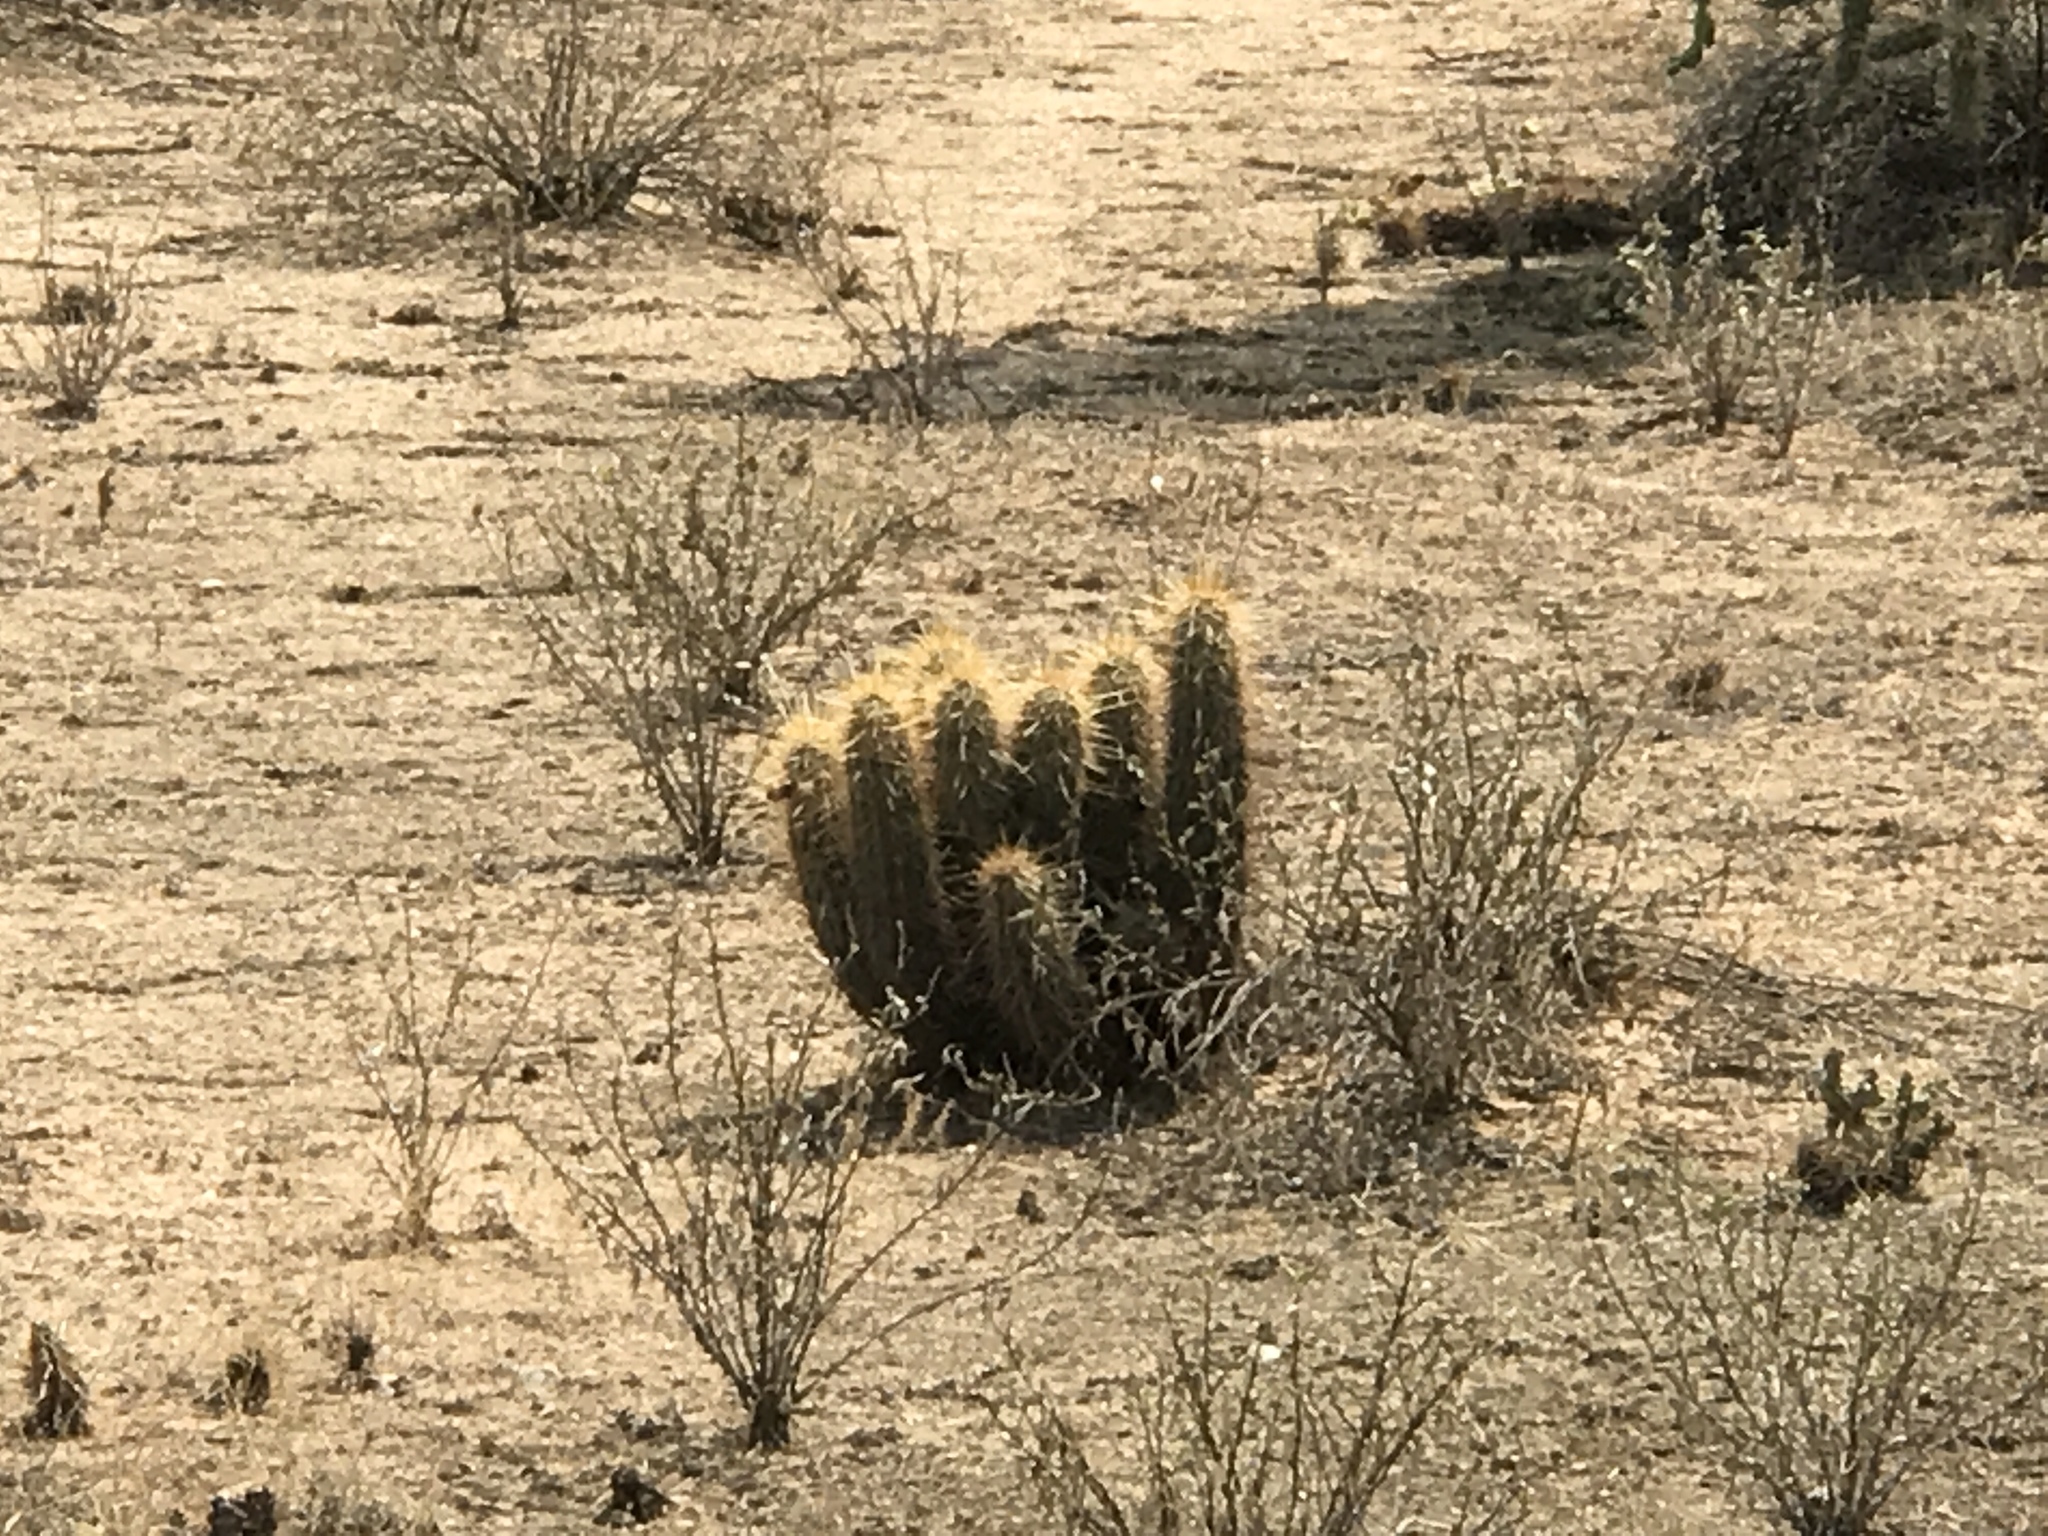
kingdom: Plantae
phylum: Tracheophyta
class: Magnoliopsida
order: Caryophyllales
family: Cactaceae
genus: Echinocereus
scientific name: Echinocereus engelmannii
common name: Engelmann's hedgehog cactus
